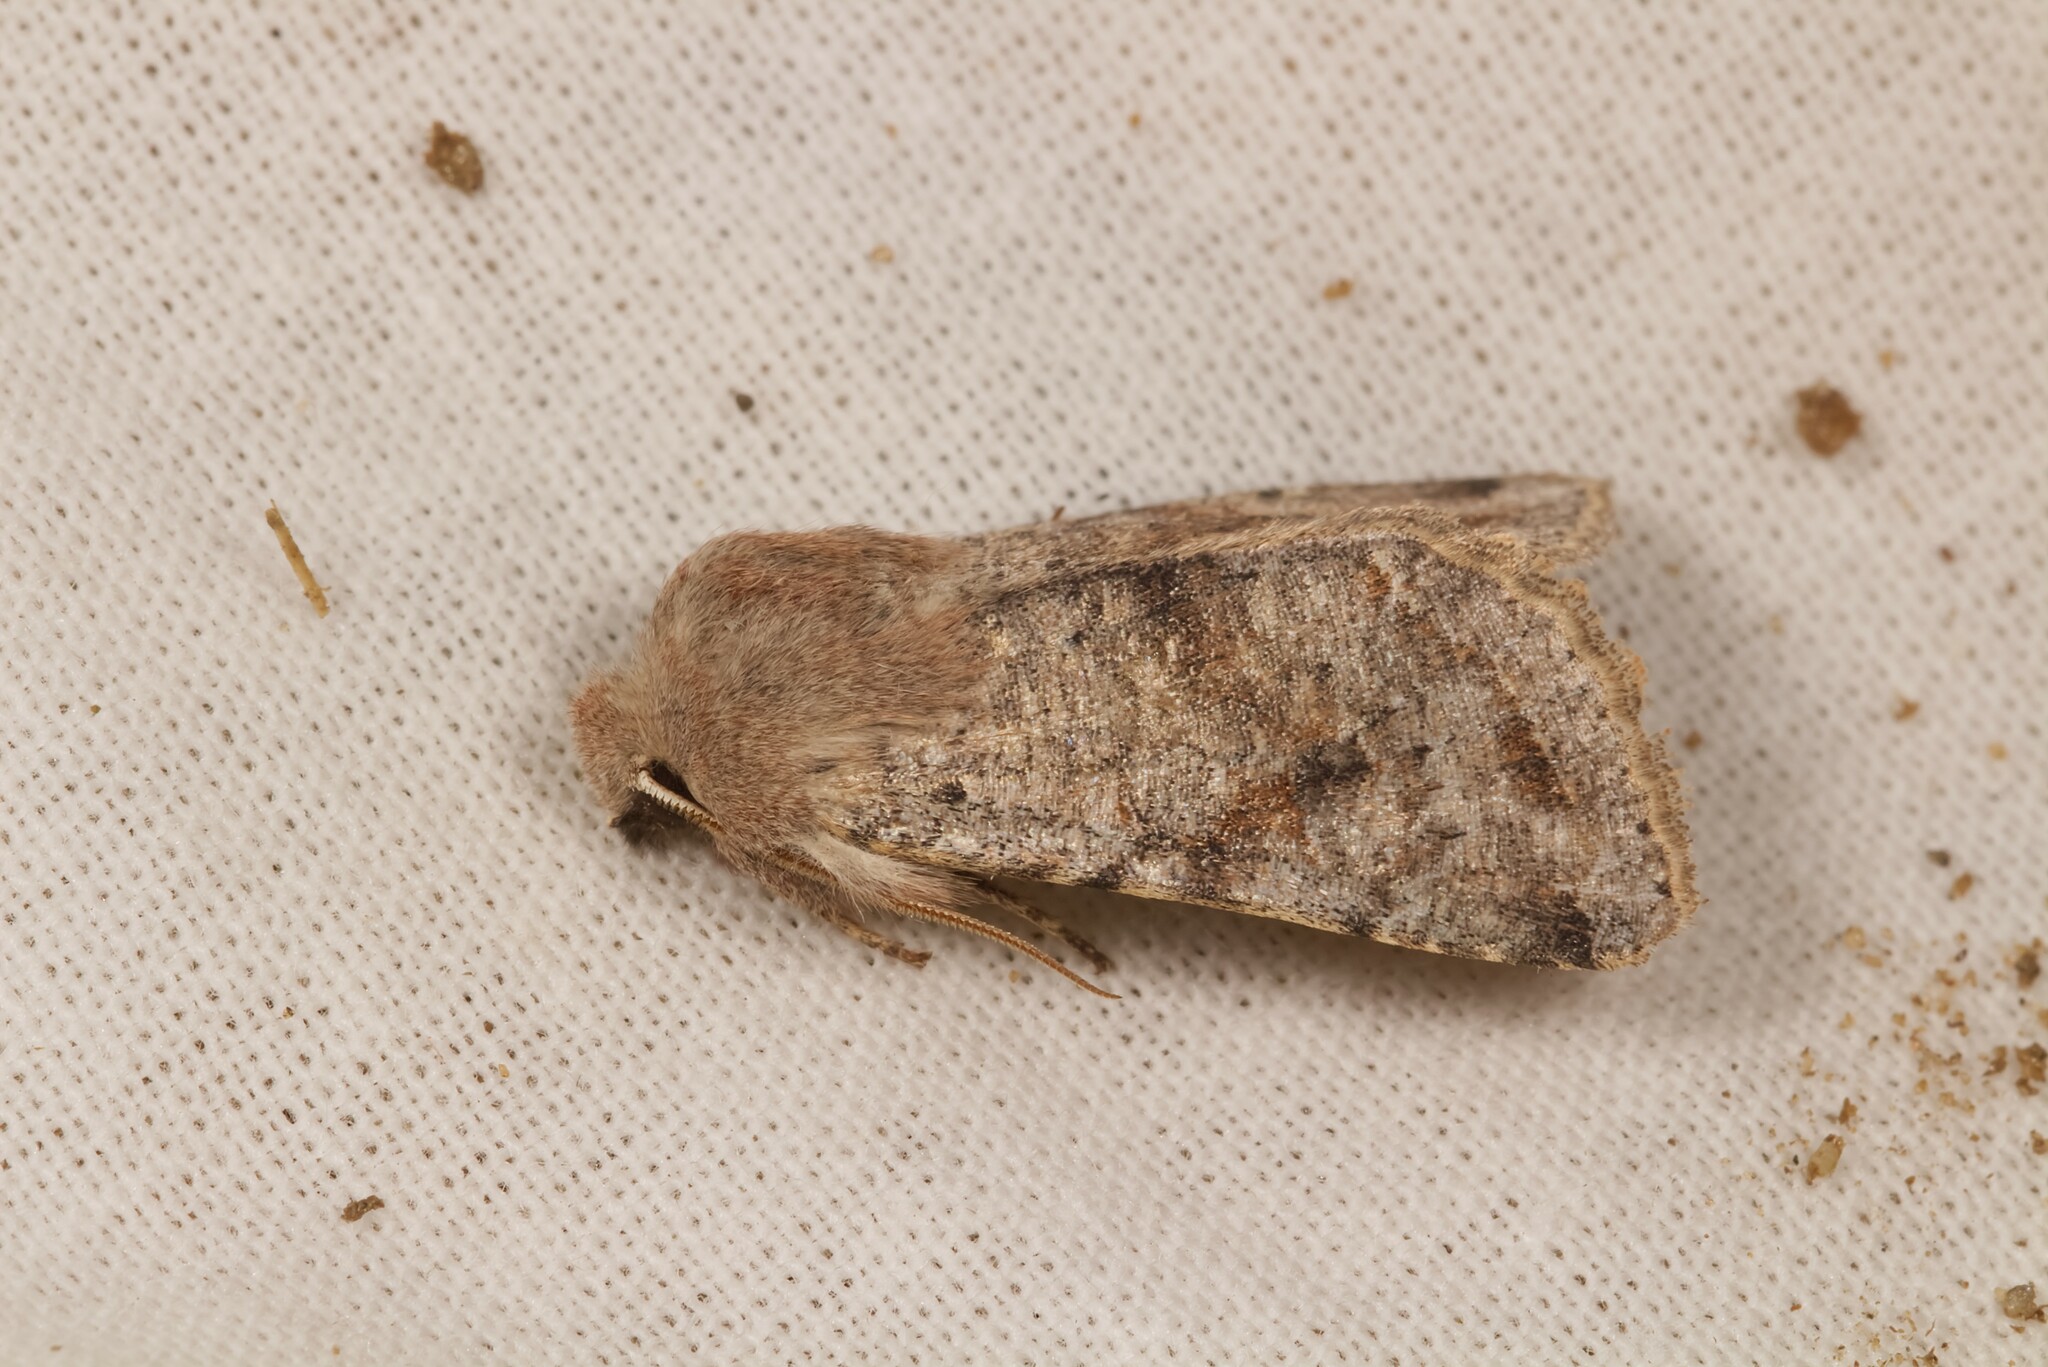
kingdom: Animalia
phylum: Arthropoda
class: Insecta
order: Lepidoptera
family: Noctuidae
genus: Orthosia
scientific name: Orthosia incerta
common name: Clouded drab
